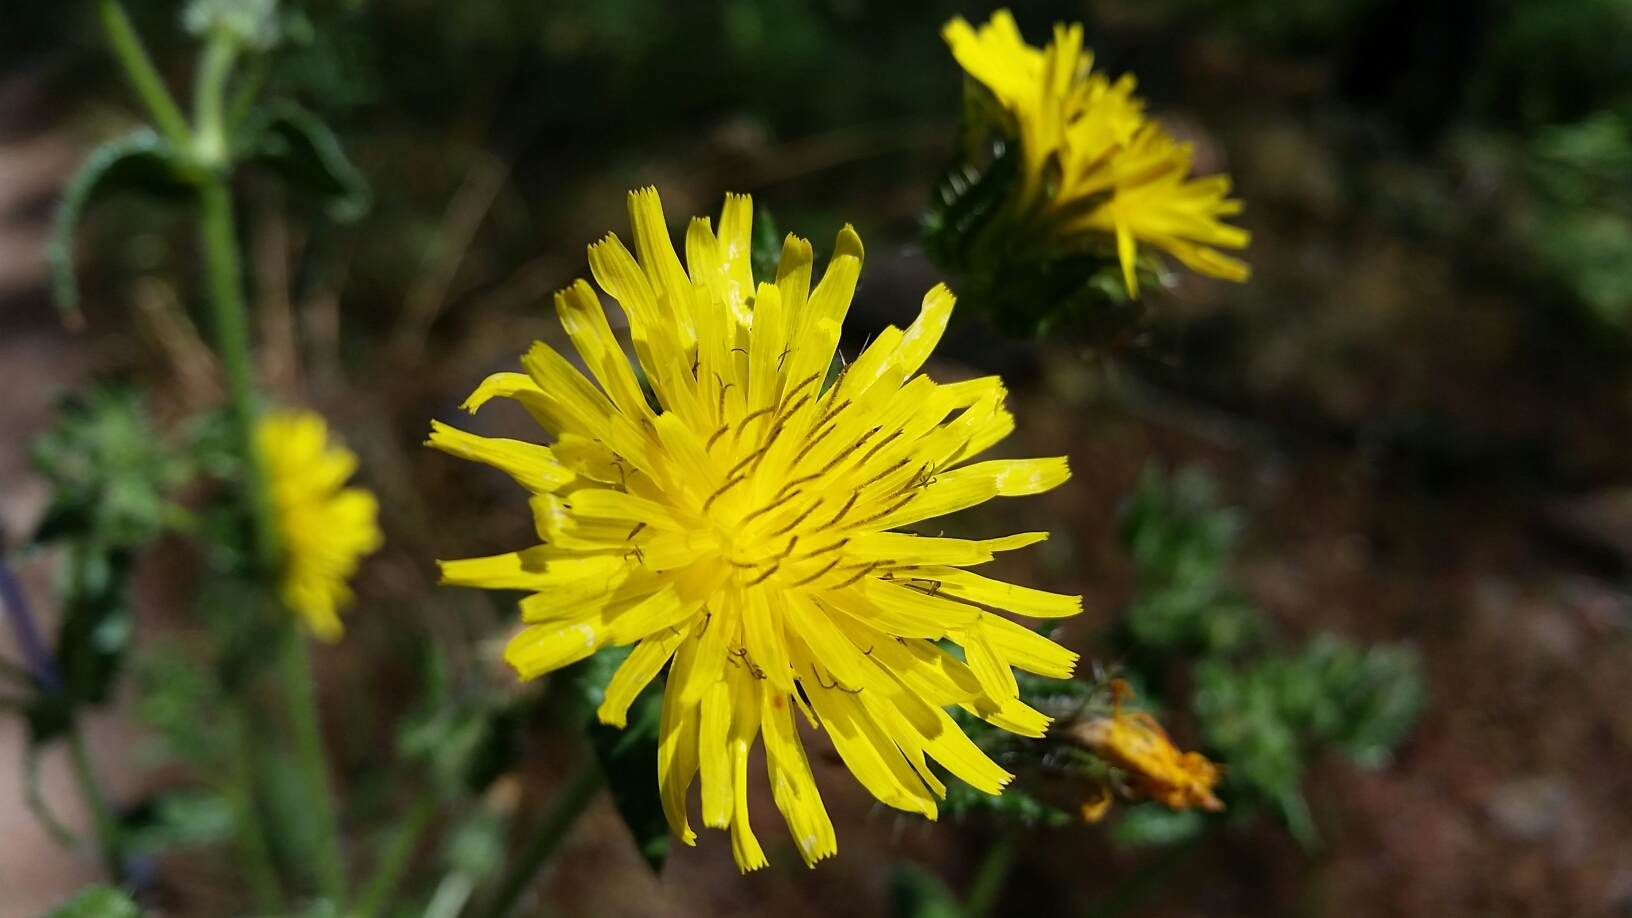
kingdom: Plantae
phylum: Tracheophyta
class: Magnoliopsida
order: Asterales
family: Asteraceae
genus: Helminthotheca
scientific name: Helminthotheca echioides
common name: Ox-tongue
